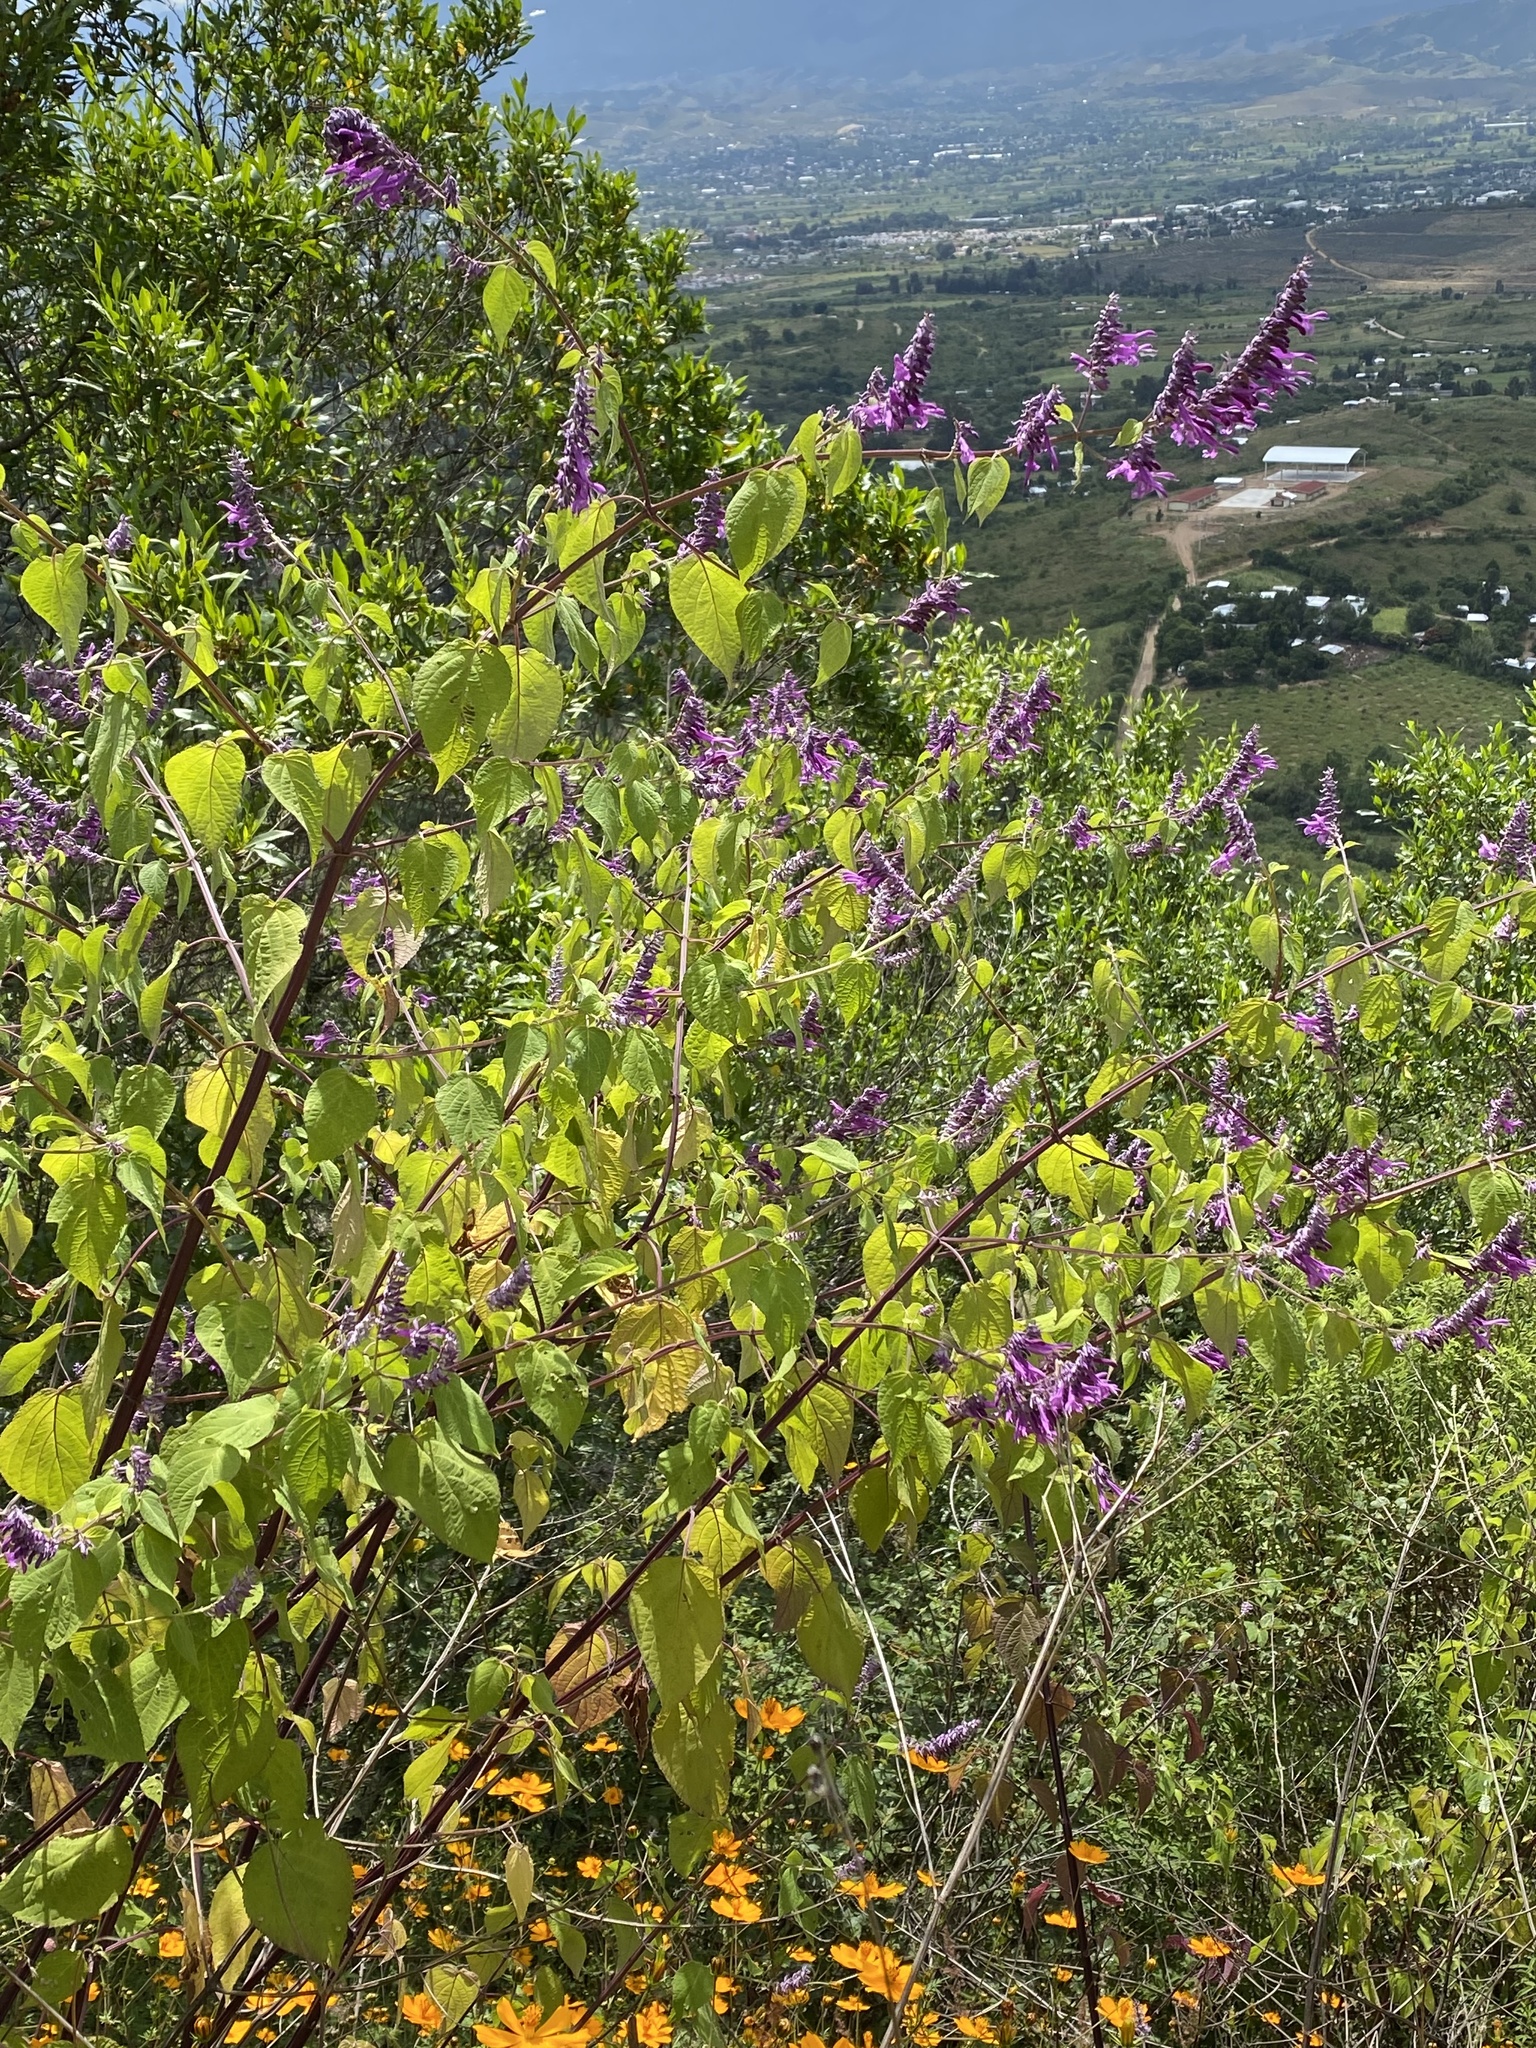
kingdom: Plantae
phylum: Tracheophyta
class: Magnoliopsida
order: Lamiales
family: Lamiaceae
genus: Salvia
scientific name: Salvia purpurea
